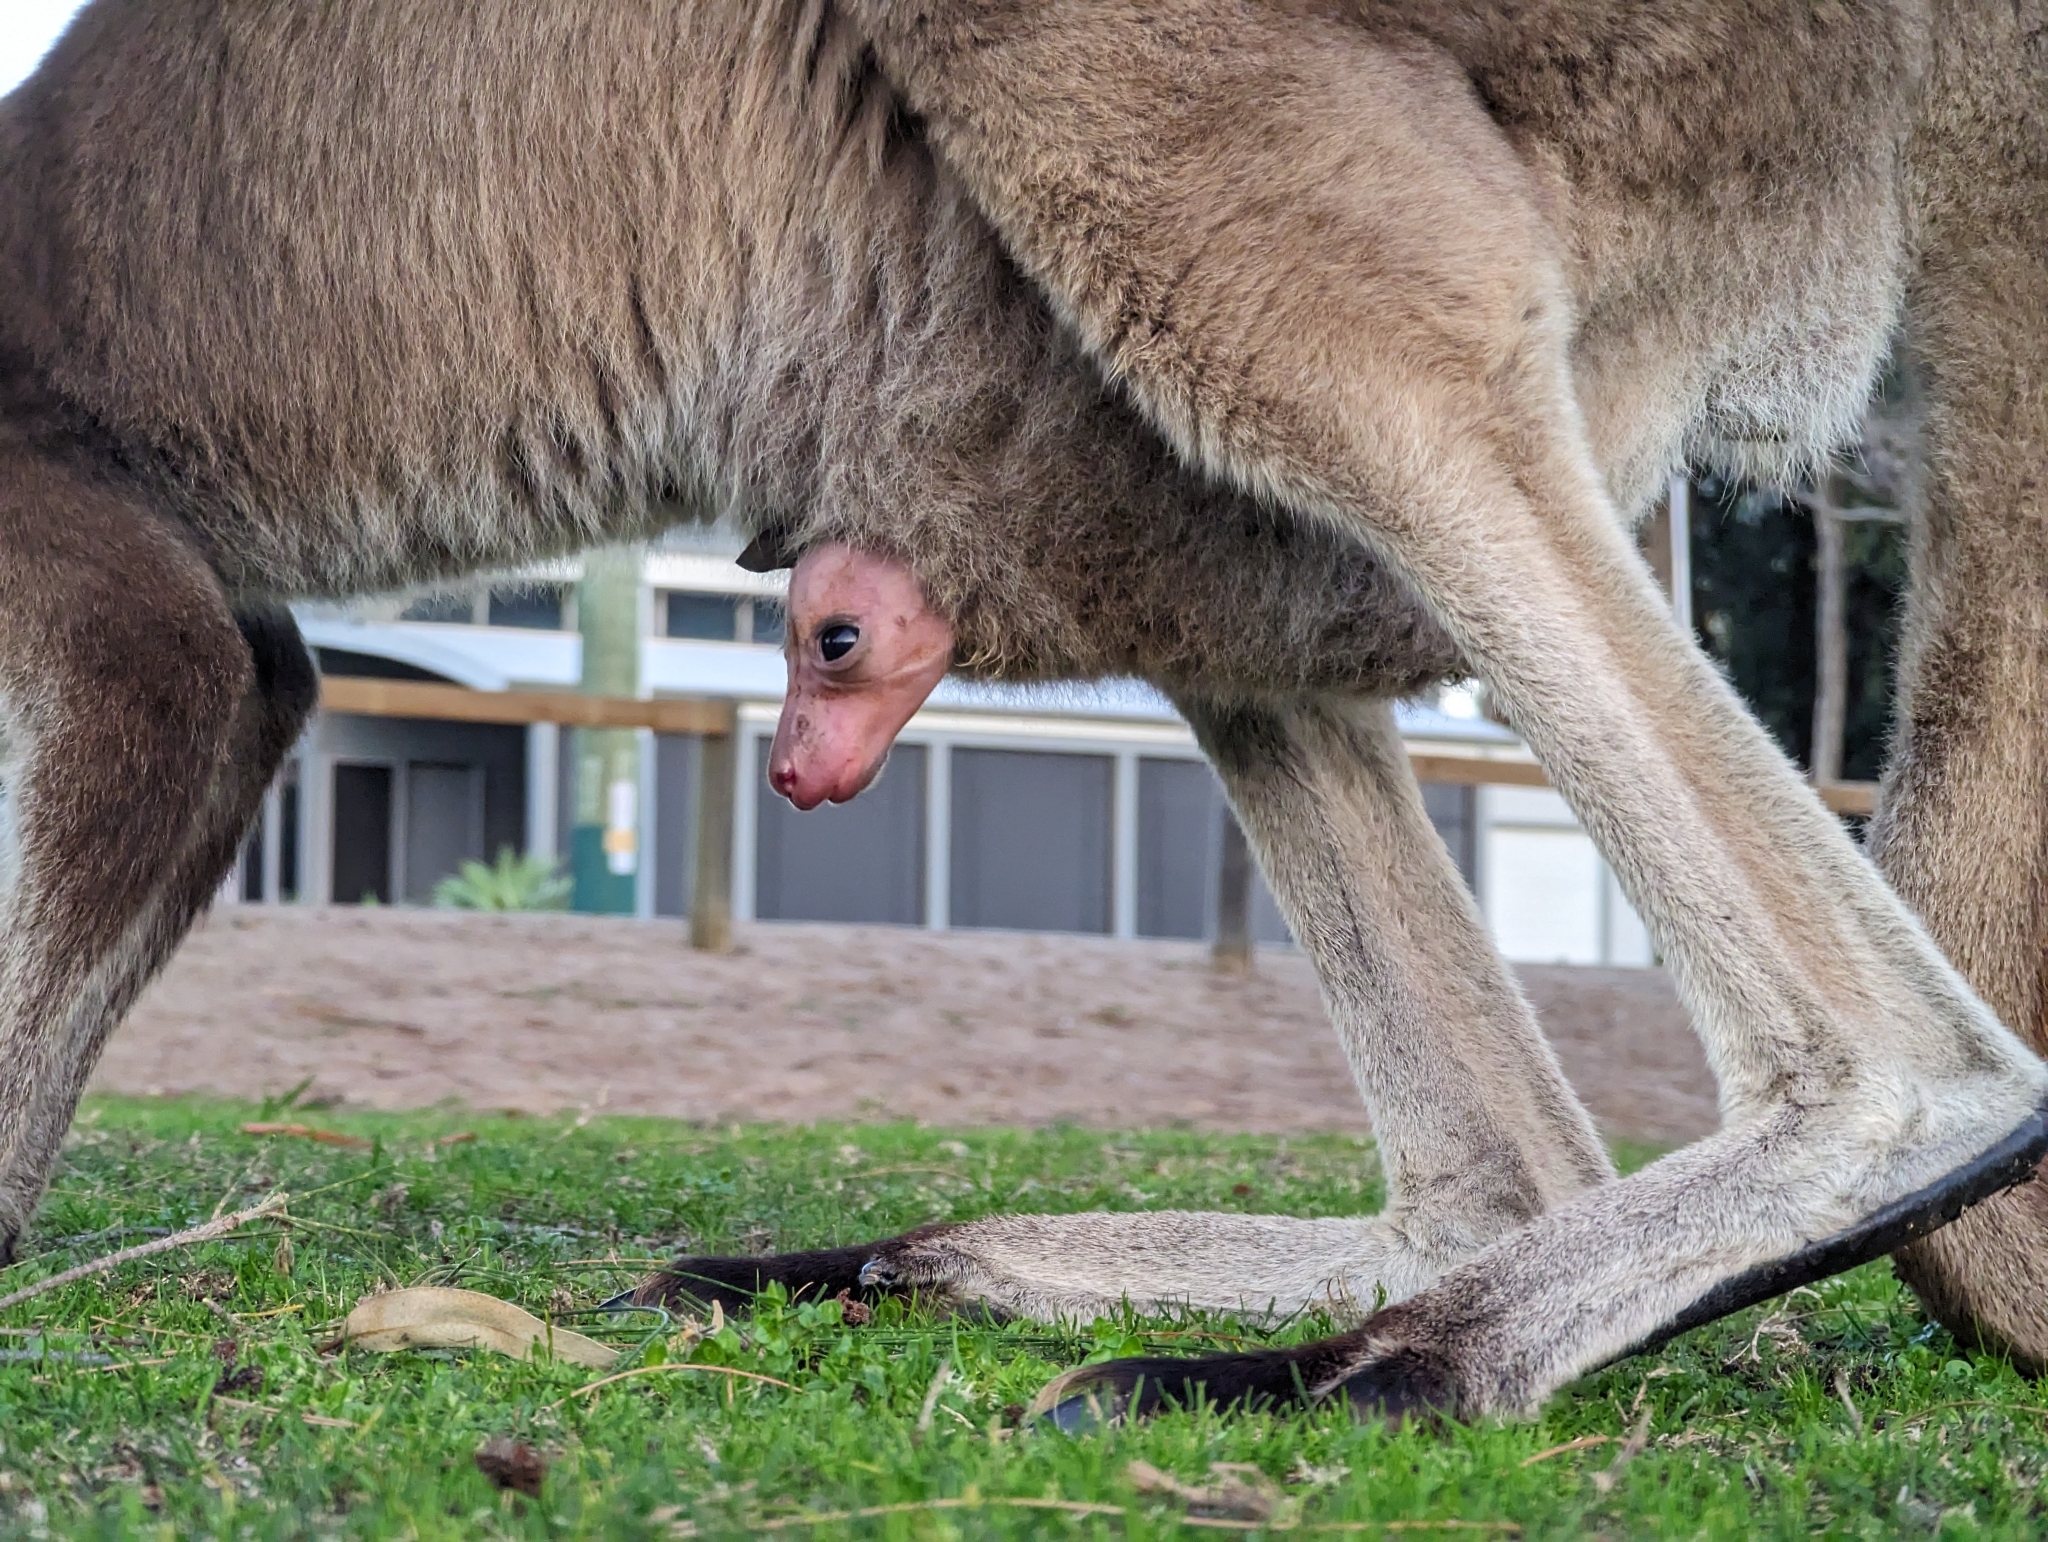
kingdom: Animalia
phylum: Chordata
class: Mammalia
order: Diprotodontia
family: Macropodidae
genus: Macropus
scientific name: Macropus fuliginosus
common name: Western grey kangaroo
